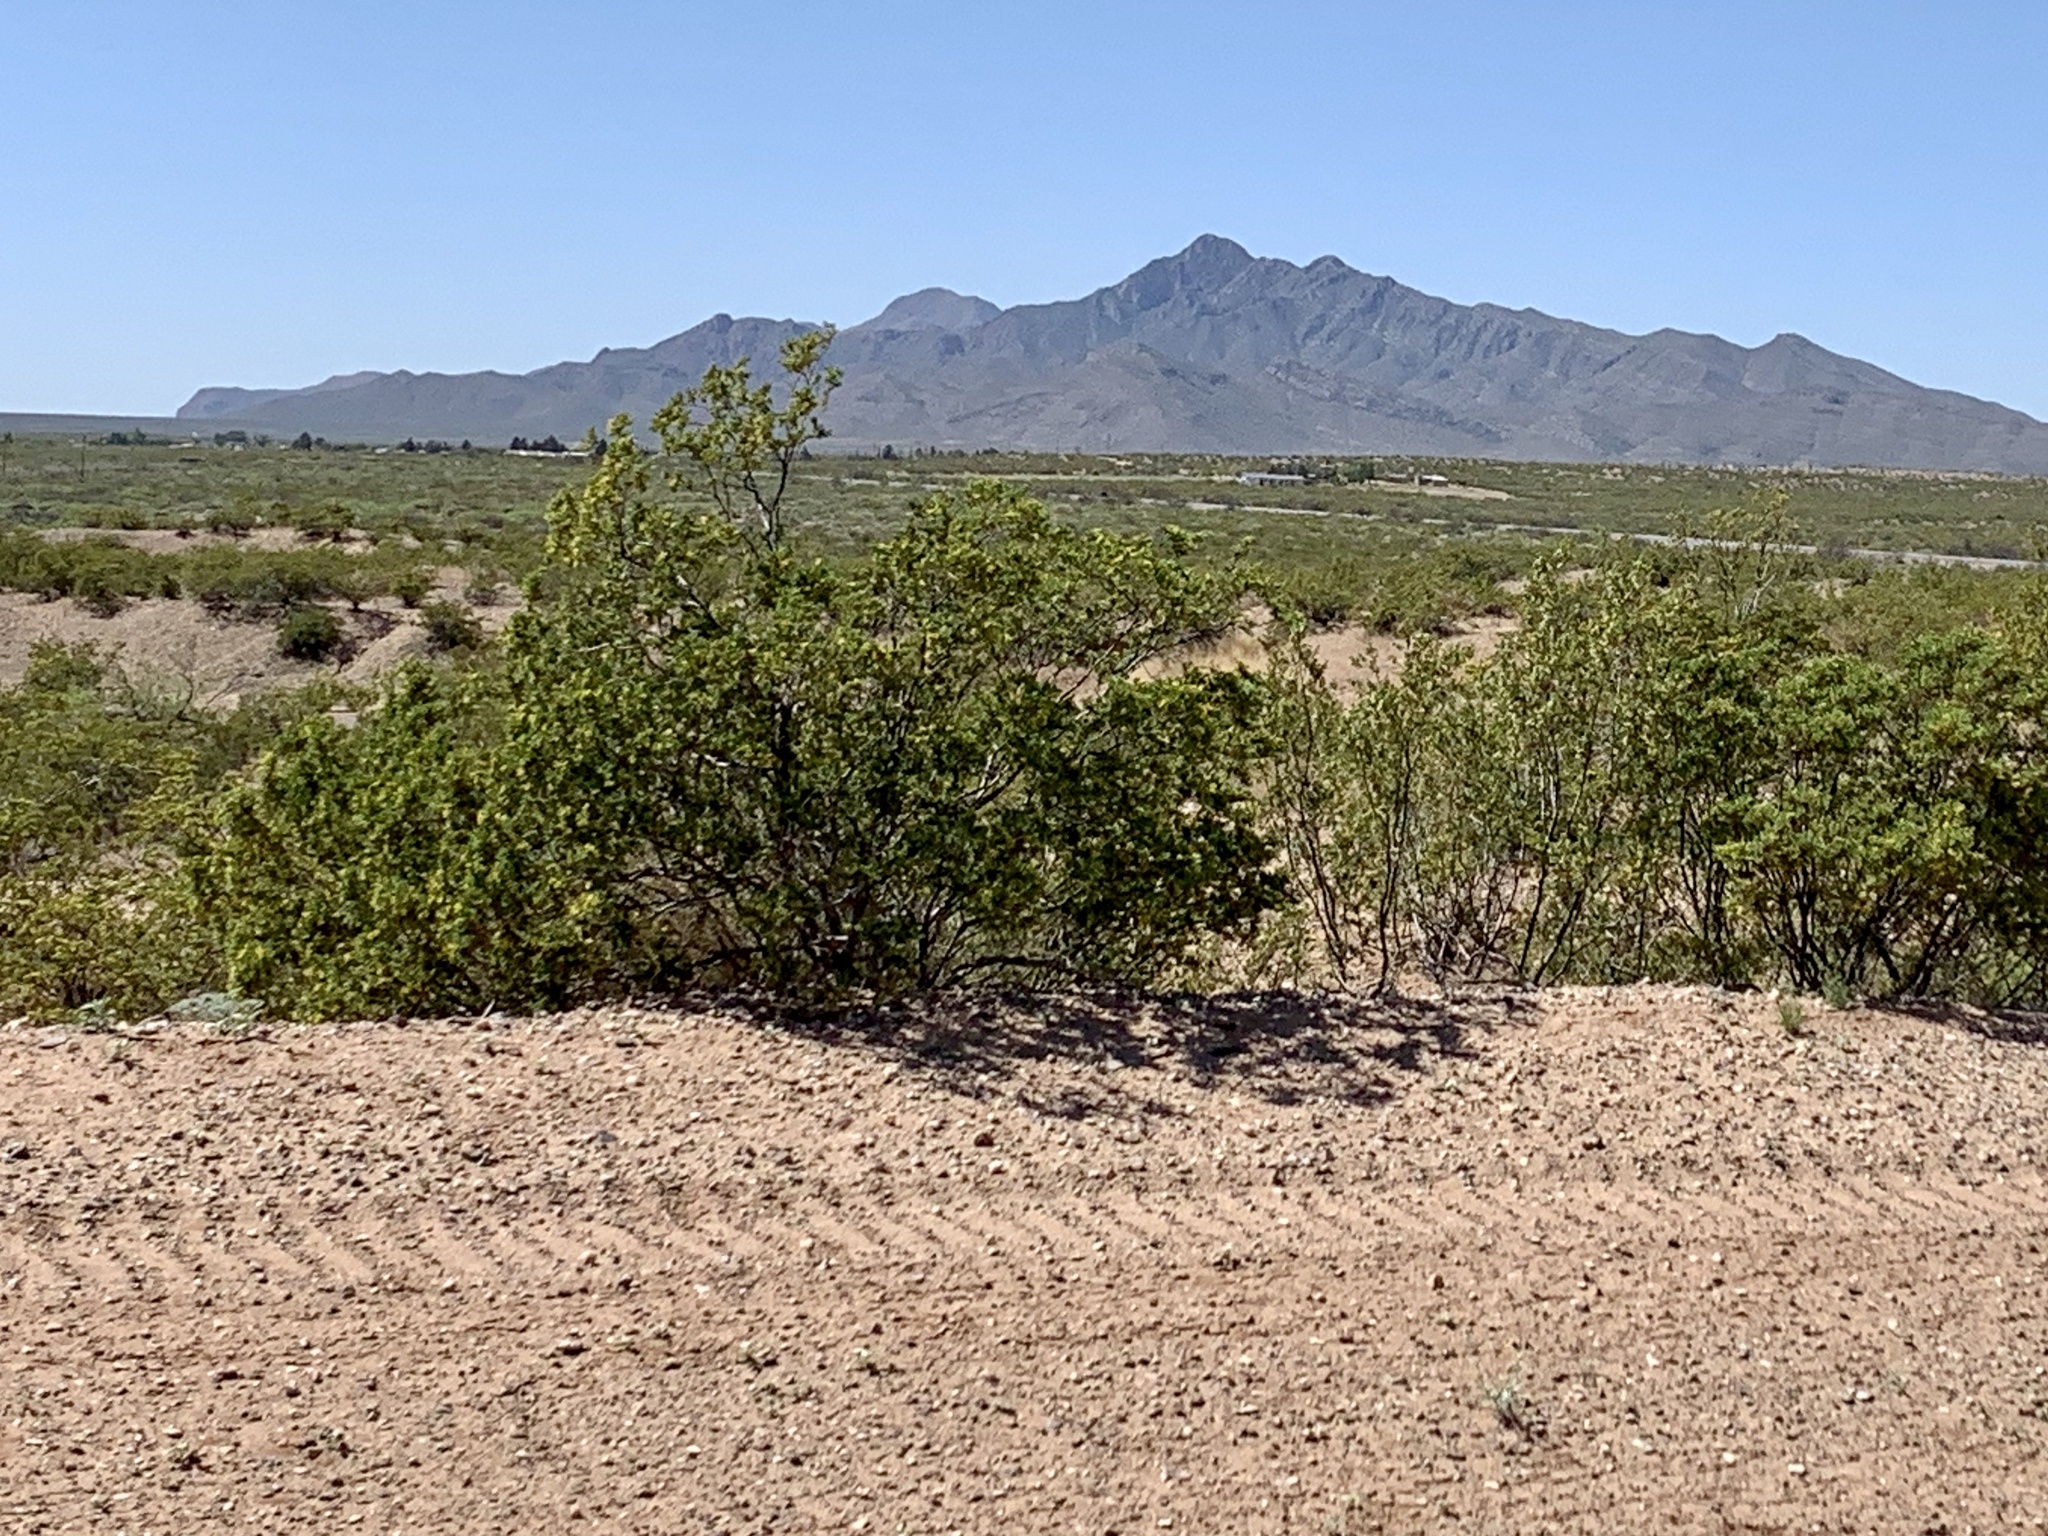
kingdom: Plantae
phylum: Tracheophyta
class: Magnoliopsida
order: Zygophyllales
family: Zygophyllaceae
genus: Larrea
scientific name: Larrea tridentata
